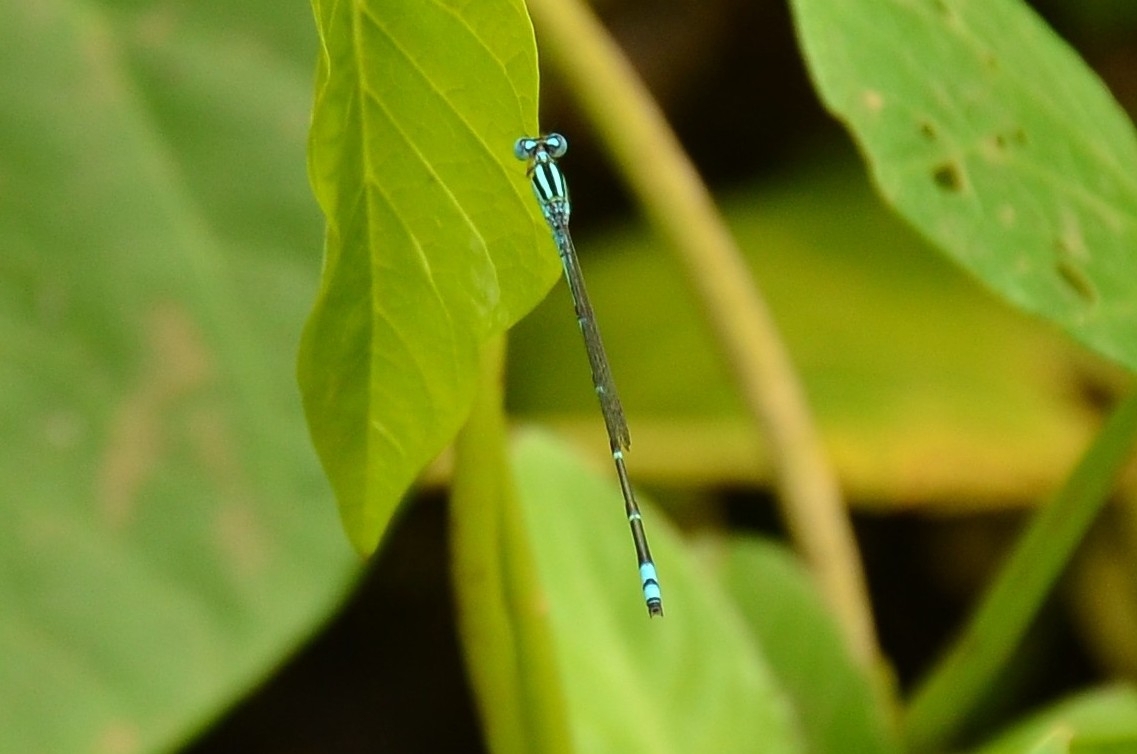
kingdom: Animalia
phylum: Arthropoda
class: Insecta
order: Odonata
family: Coenagrionidae
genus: Pseudagrion
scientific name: Pseudagrion microcephalum
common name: Blue riverdamsel
